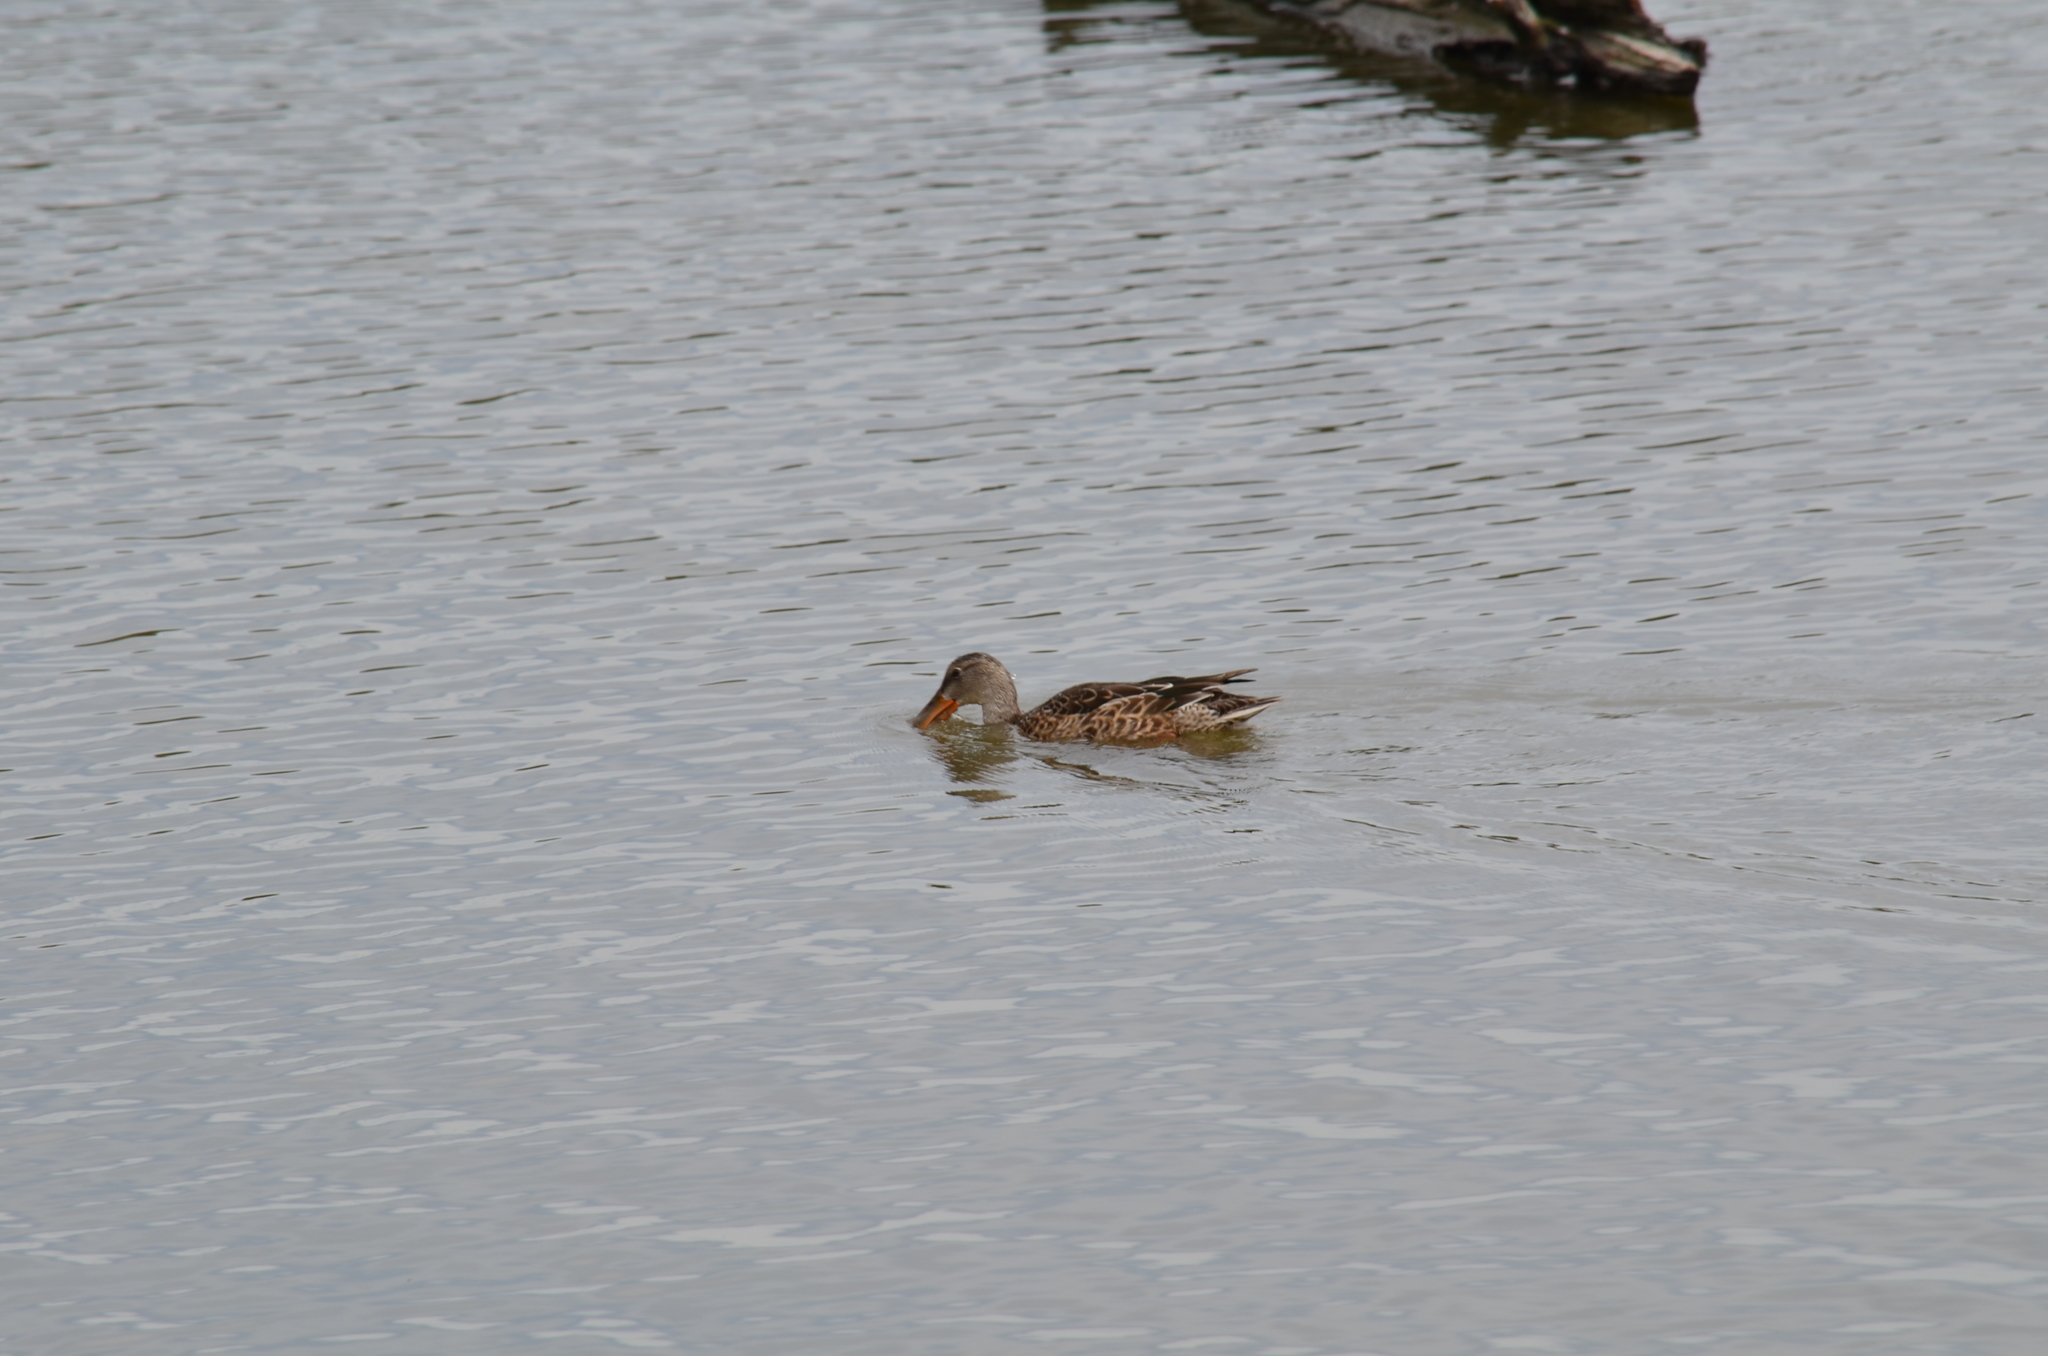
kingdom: Animalia
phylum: Chordata
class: Aves
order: Anseriformes
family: Anatidae
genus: Spatula
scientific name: Spatula clypeata
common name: Northern shoveler
